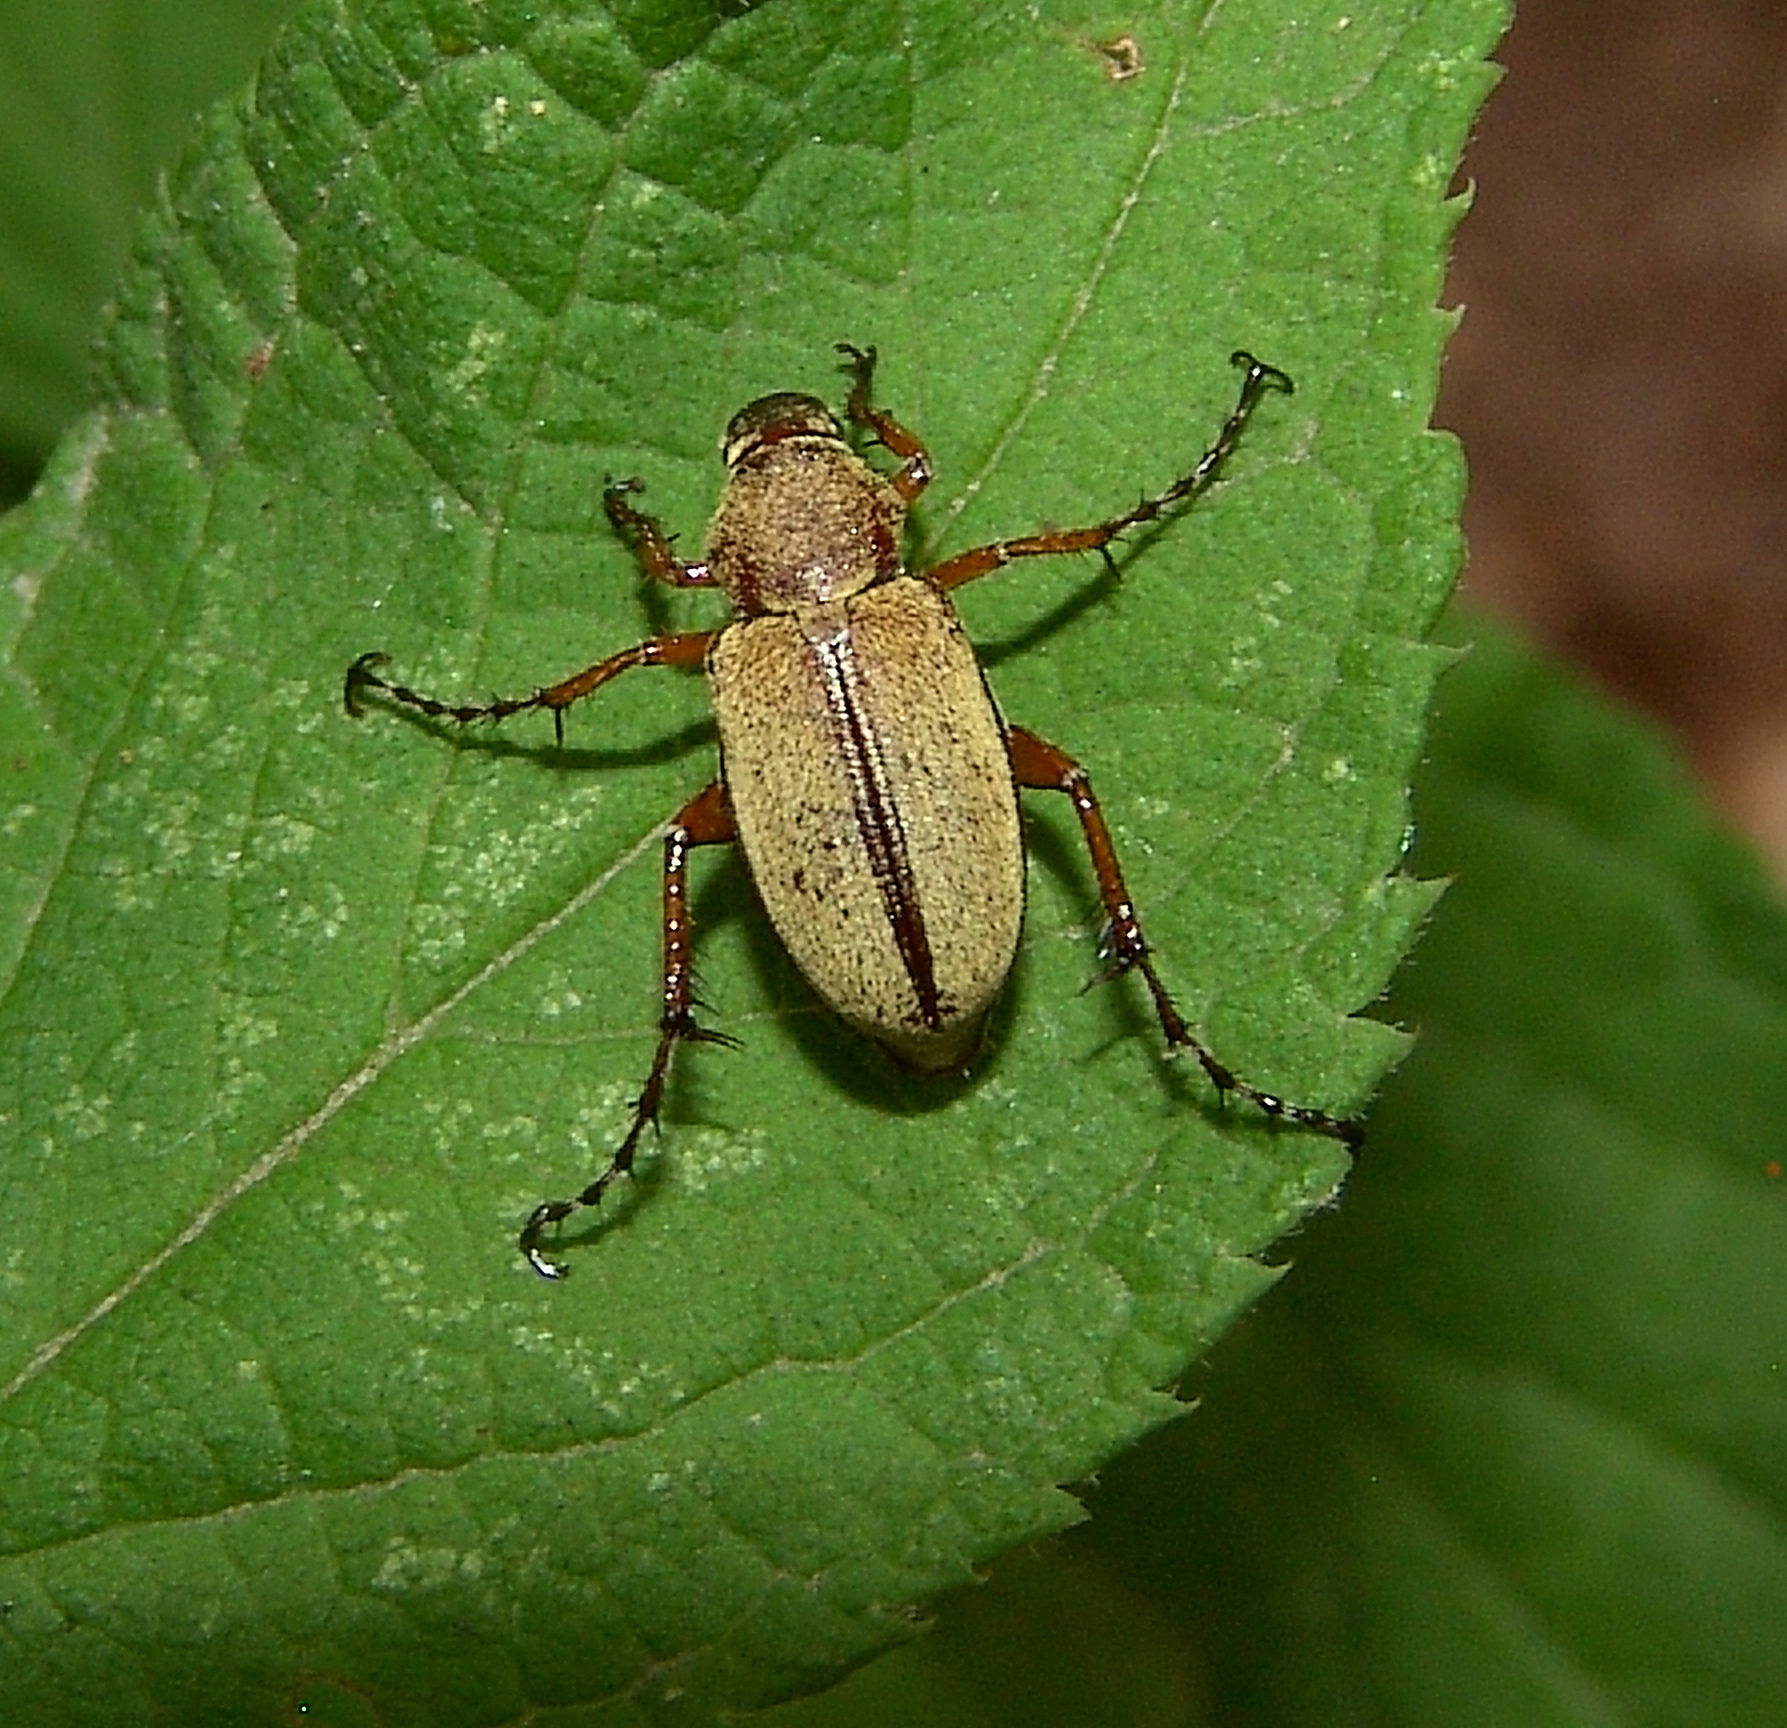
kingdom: Animalia
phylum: Arthropoda
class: Insecta
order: Coleoptera
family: Scarabaeidae
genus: Macrodactylus
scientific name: Macrodactylus subspinosus
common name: American rose chafer
